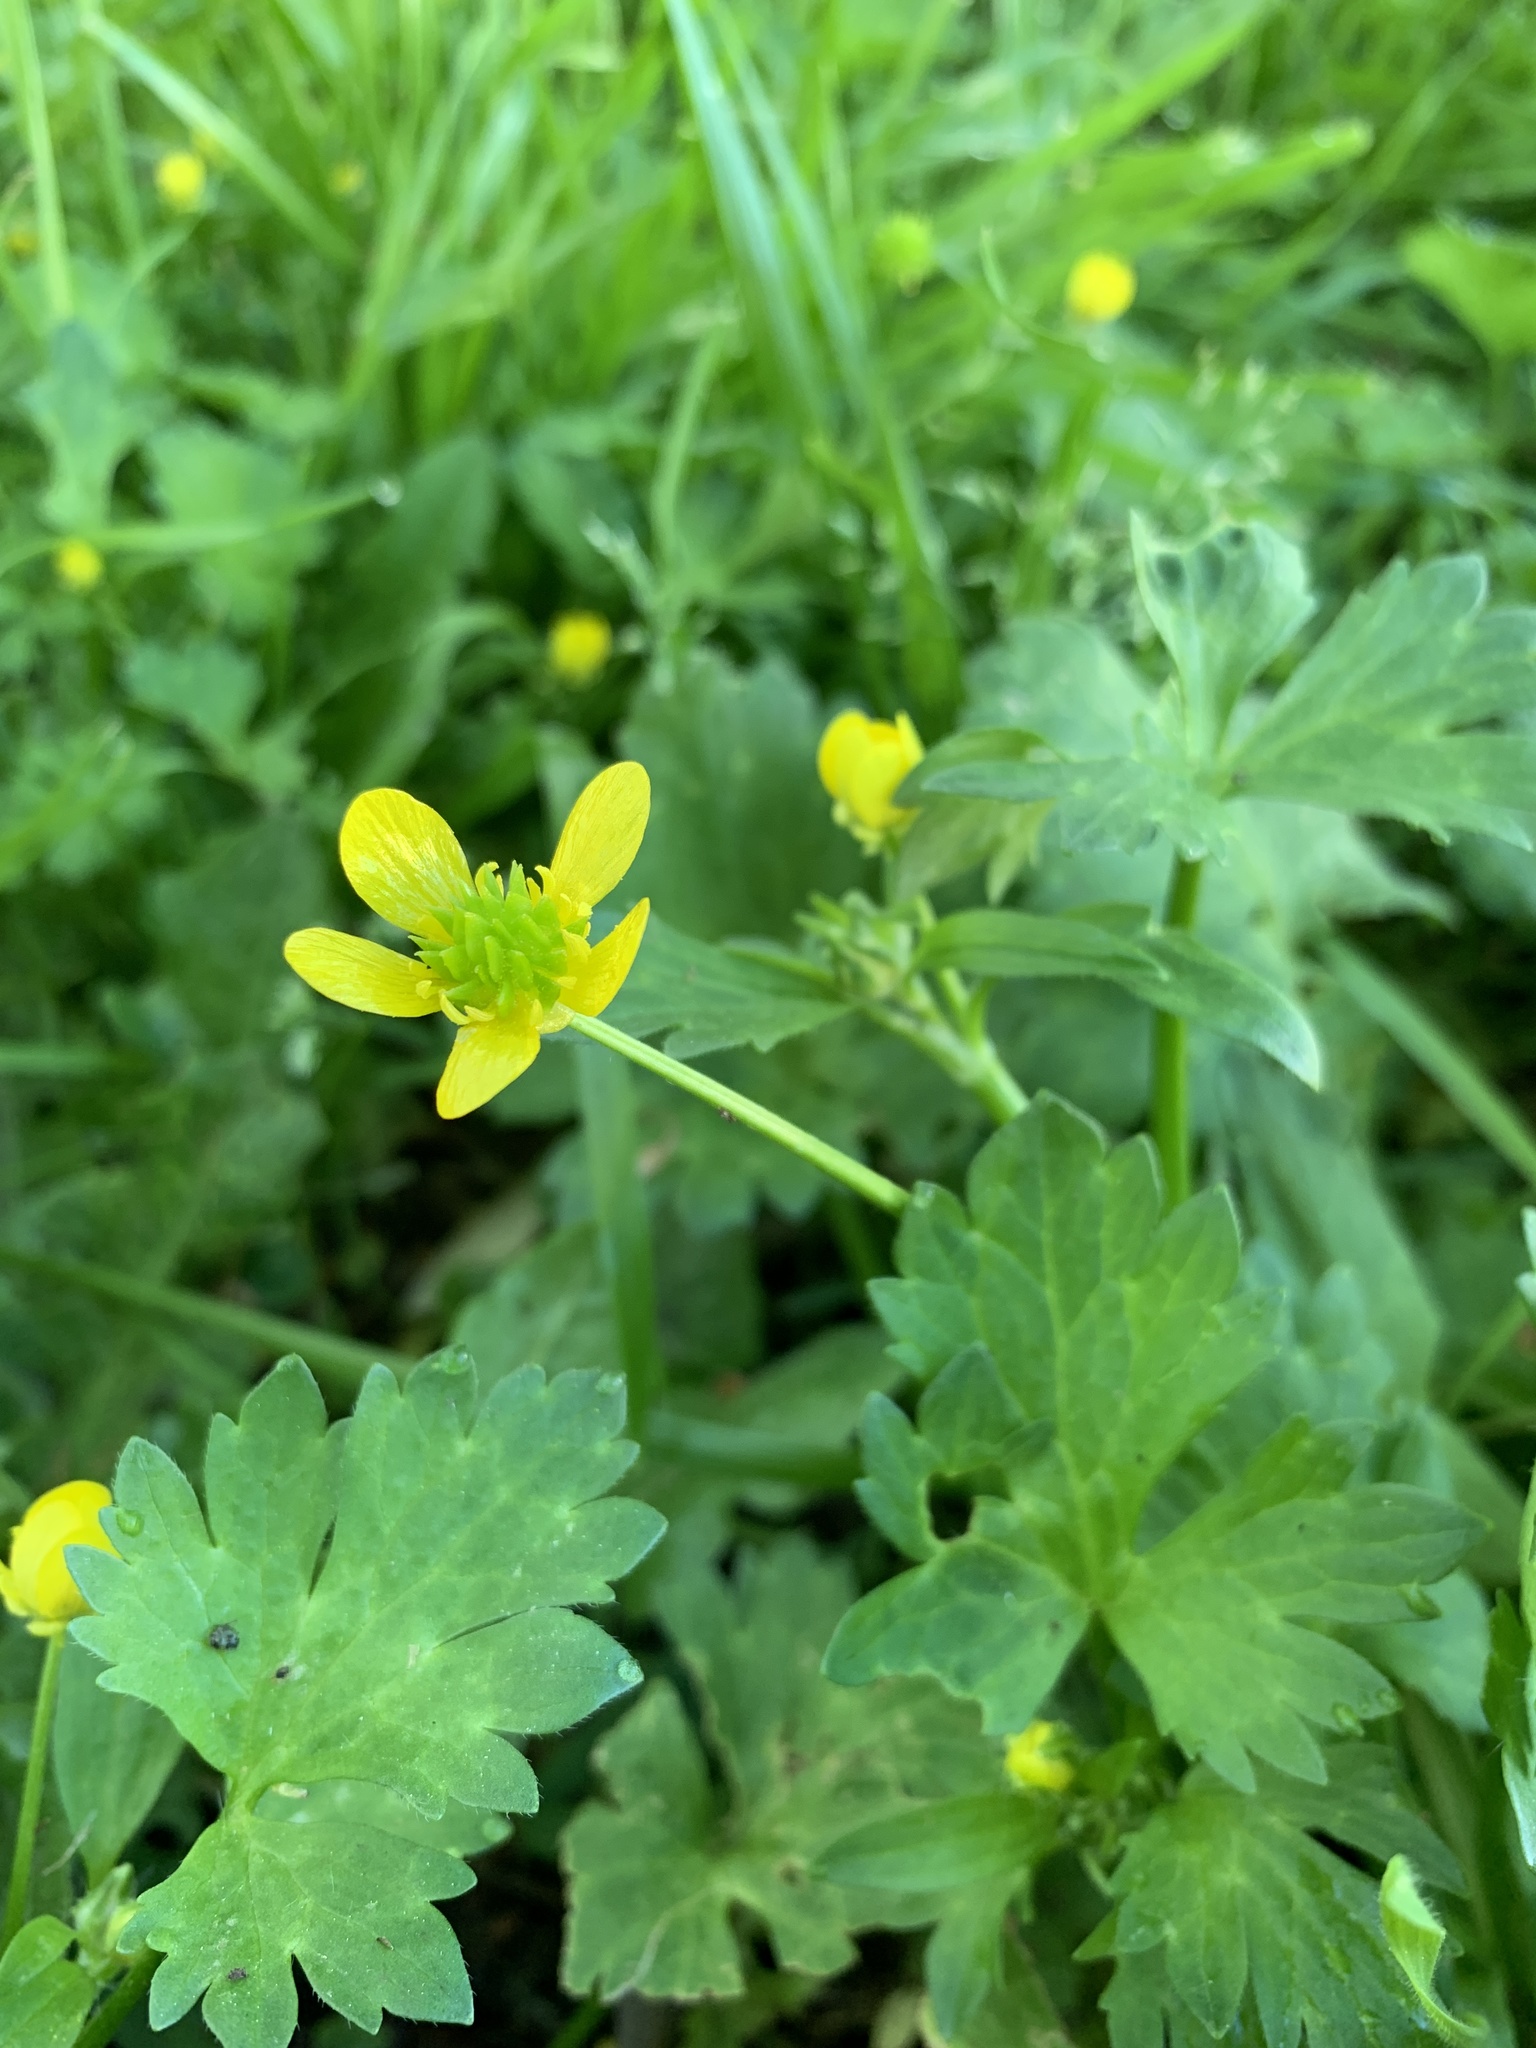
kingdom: Plantae
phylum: Tracheophyta
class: Magnoliopsida
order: Ranunculales
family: Ranunculaceae
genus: Ranunculus
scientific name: Ranunculus muricatus
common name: Rough-fruited buttercup
